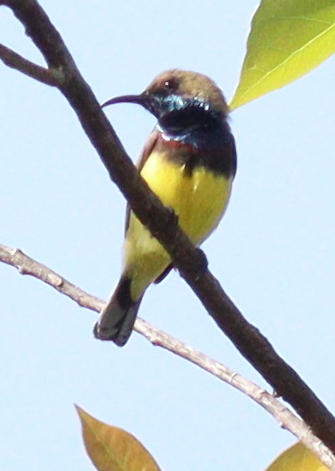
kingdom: Animalia
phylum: Chordata
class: Aves
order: Passeriformes
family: Nectariniidae
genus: Cinnyris
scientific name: Cinnyris
